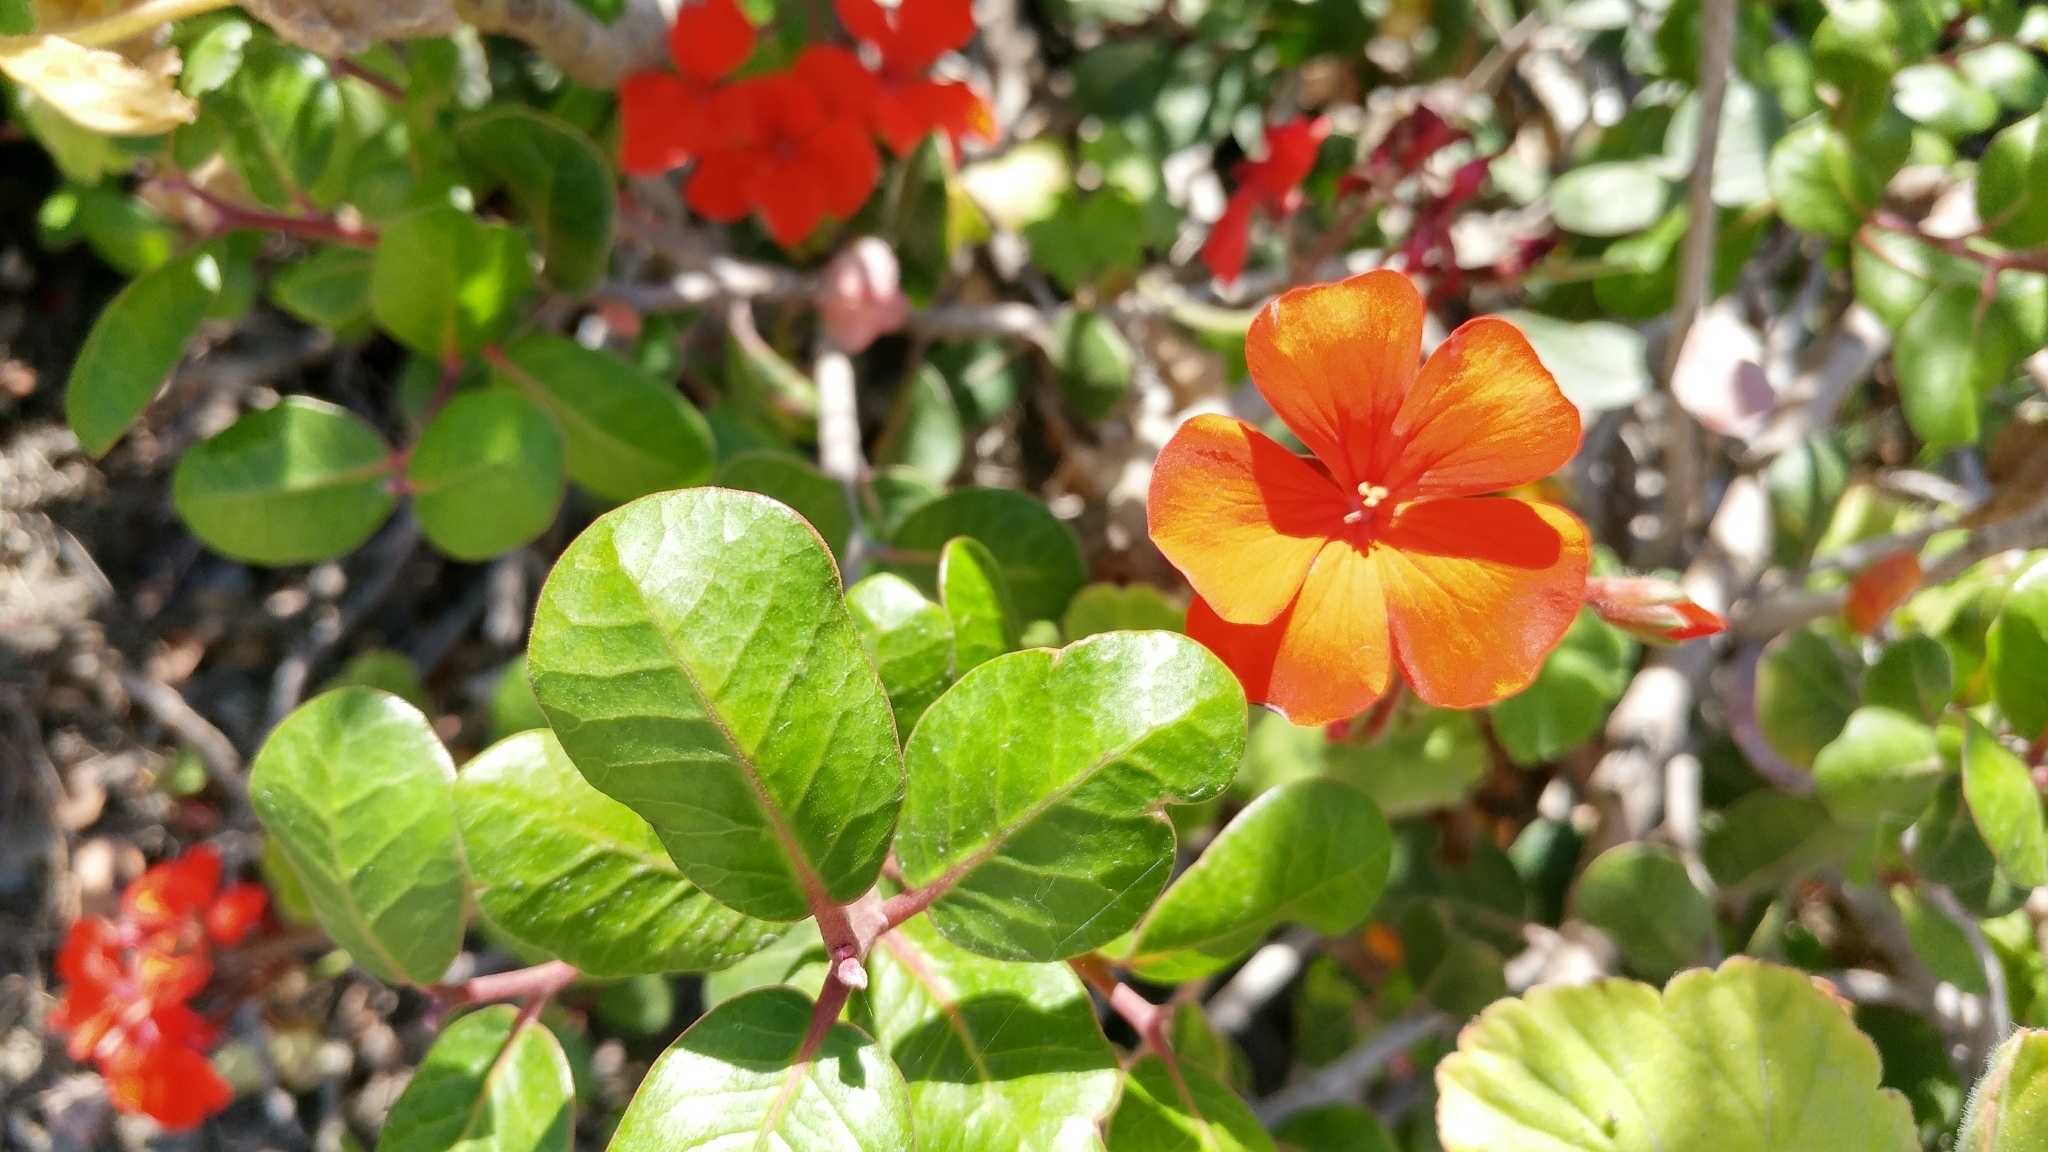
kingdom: Plantae
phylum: Tracheophyta
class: Magnoliopsida
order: Geraniales
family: Geraniaceae
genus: Pelargonium
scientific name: Pelargonium hybridum
